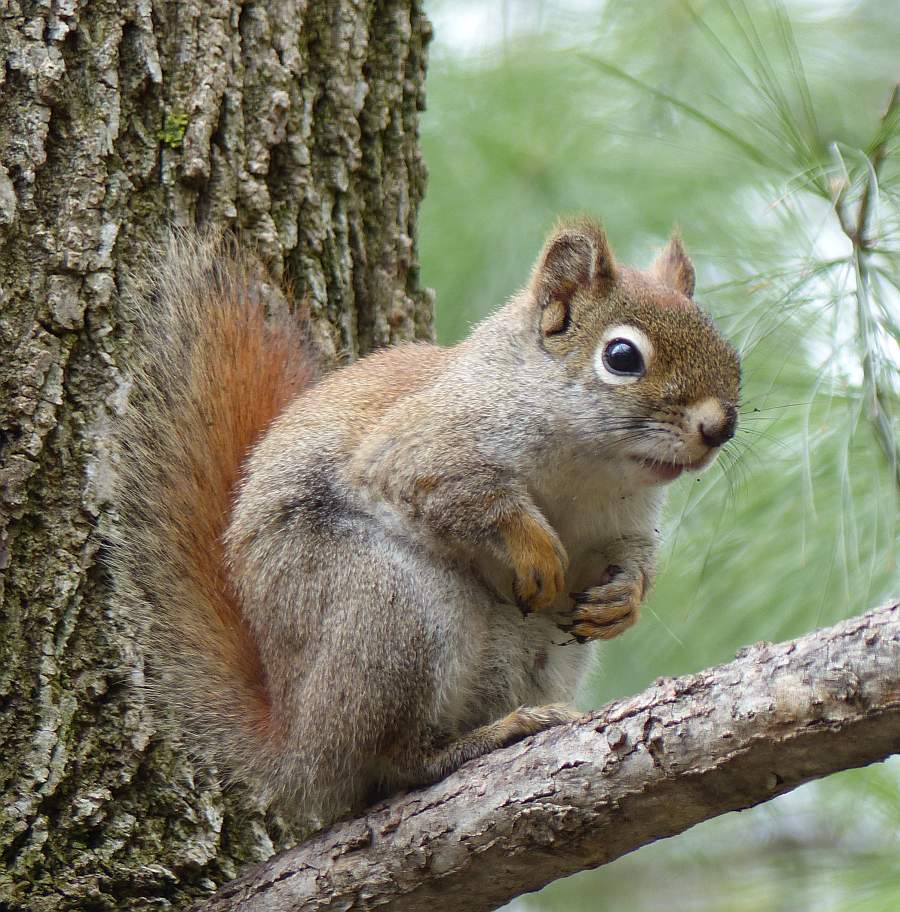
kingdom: Animalia
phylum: Chordata
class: Mammalia
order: Rodentia
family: Sciuridae
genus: Tamiasciurus
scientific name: Tamiasciurus hudsonicus
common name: Red squirrel
